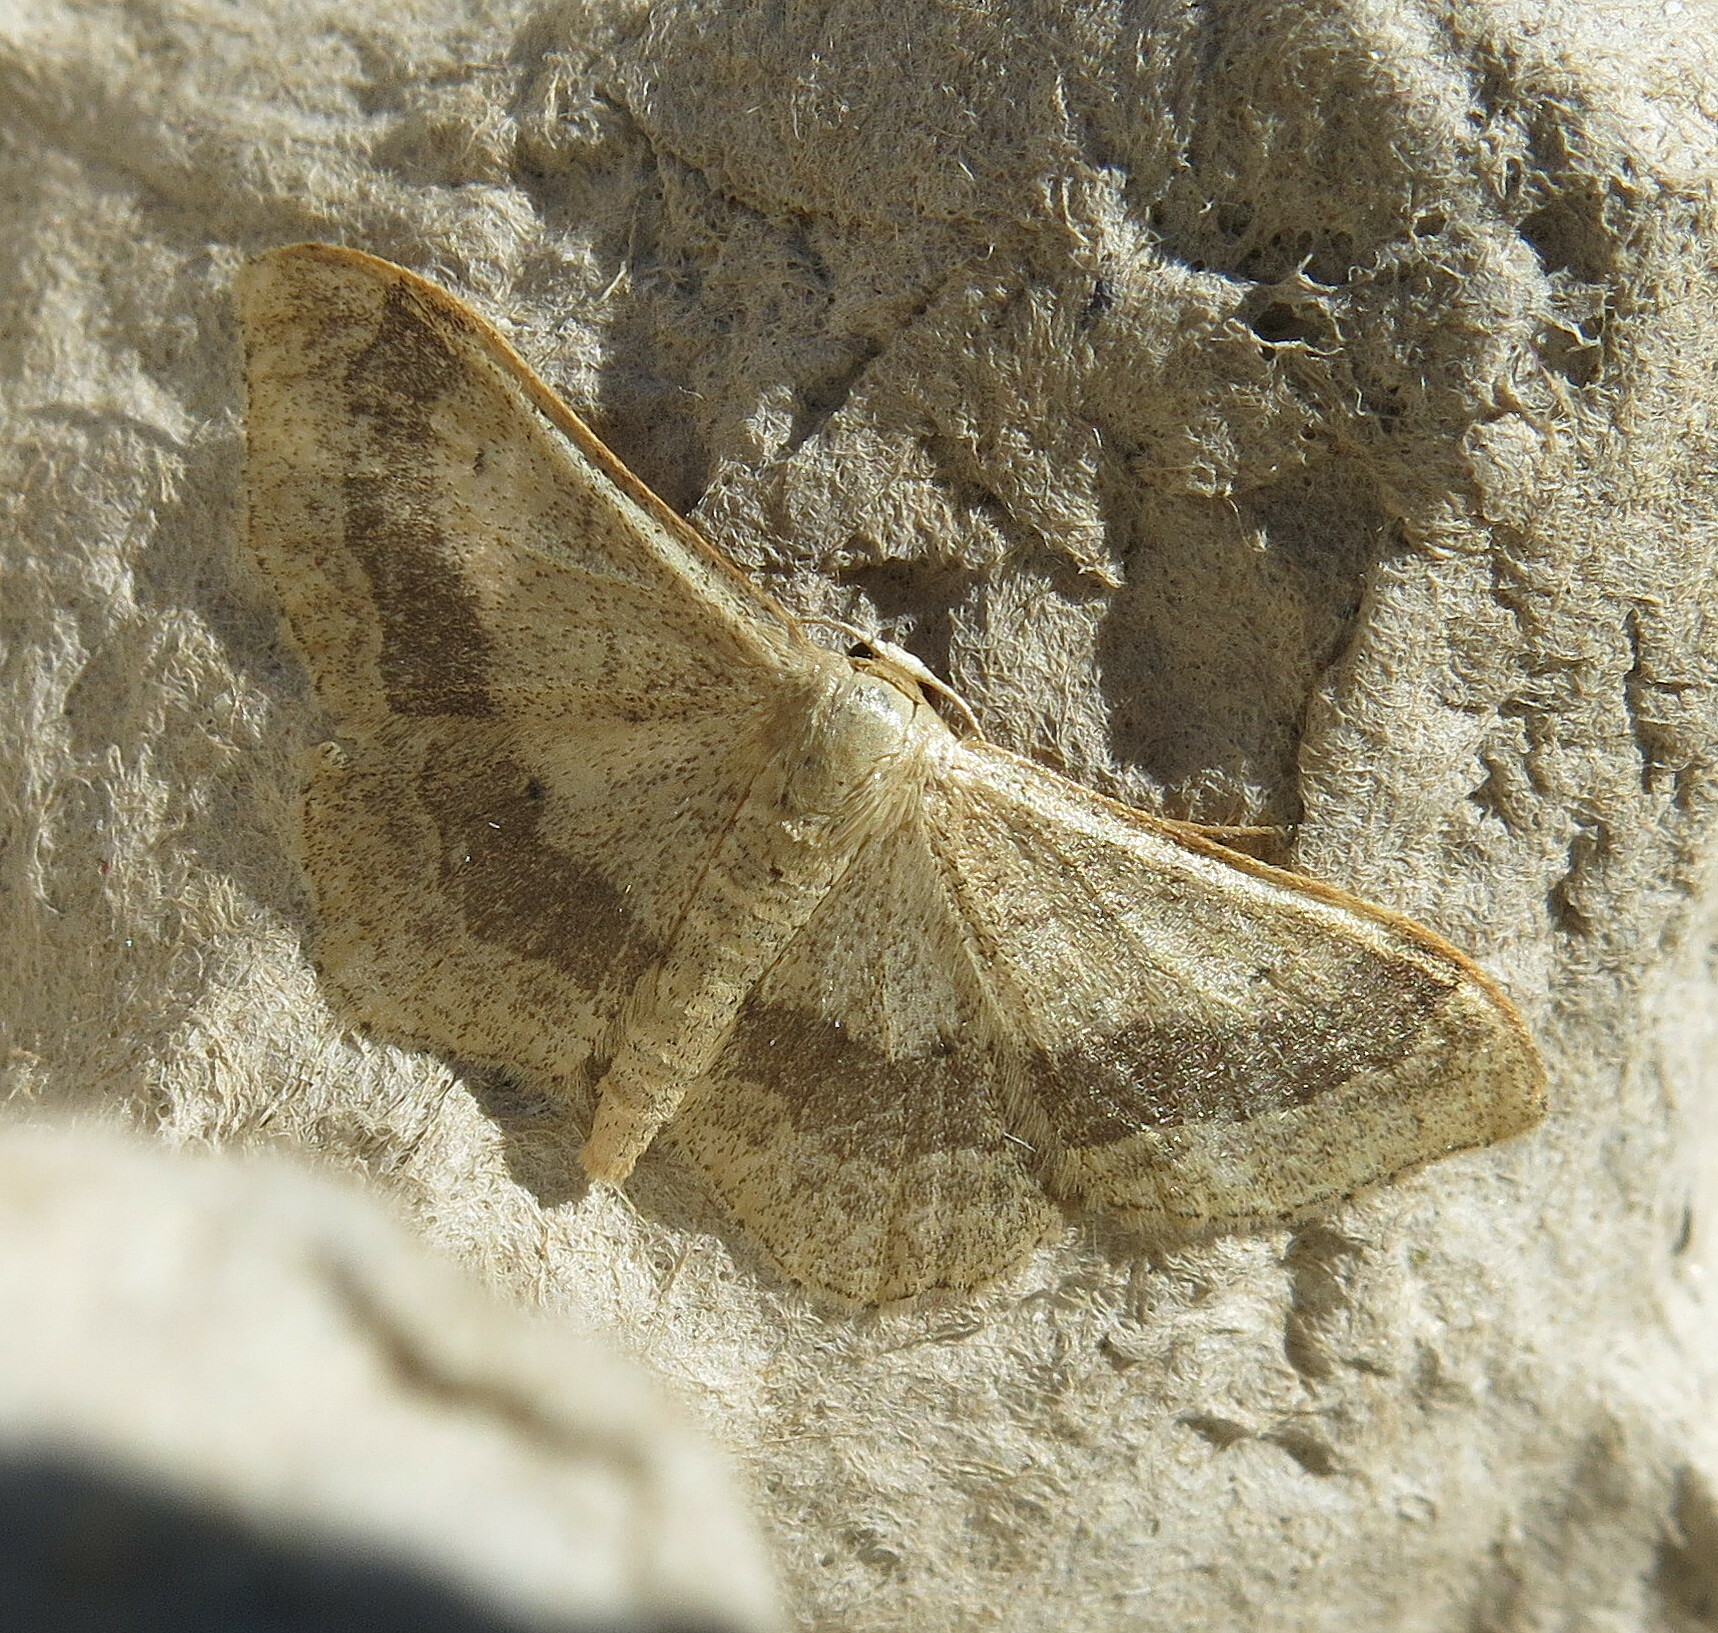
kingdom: Animalia
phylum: Arthropoda
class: Insecta
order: Lepidoptera
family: Geometridae
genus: Idaea
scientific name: Idaea aversata
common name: Riband wave
